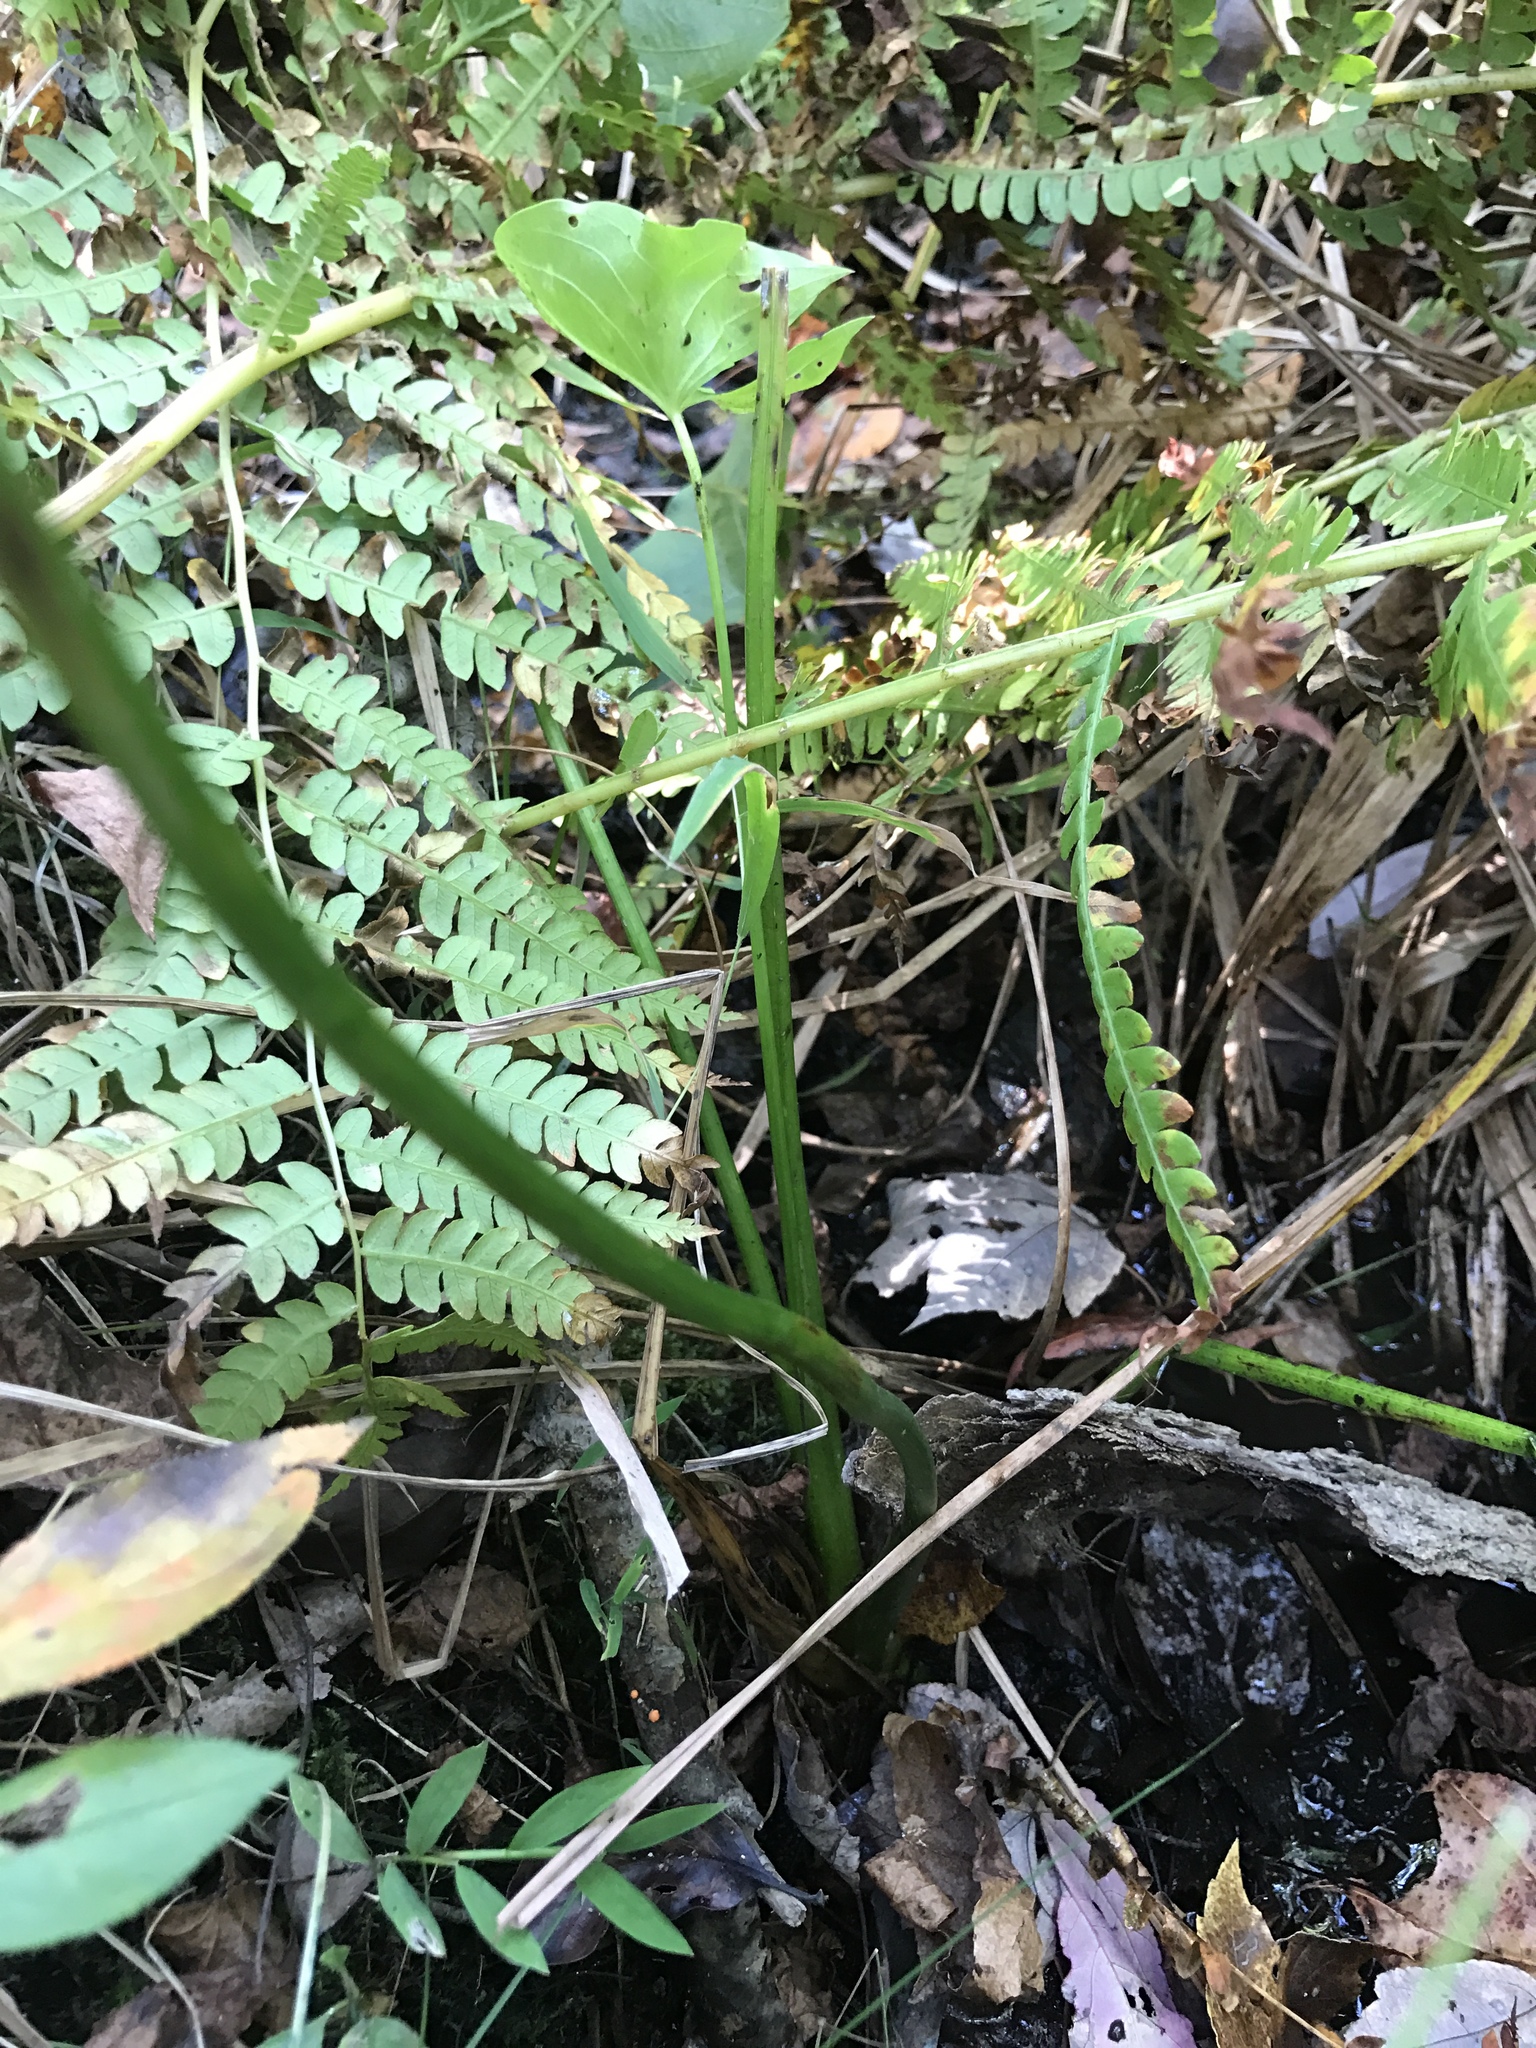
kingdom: Plantae
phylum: Tracheophyta
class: Liliopsida
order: Alismatales
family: Alismataceae
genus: Sagittaria
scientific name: Sagittaria latifolia
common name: Duck-potato
